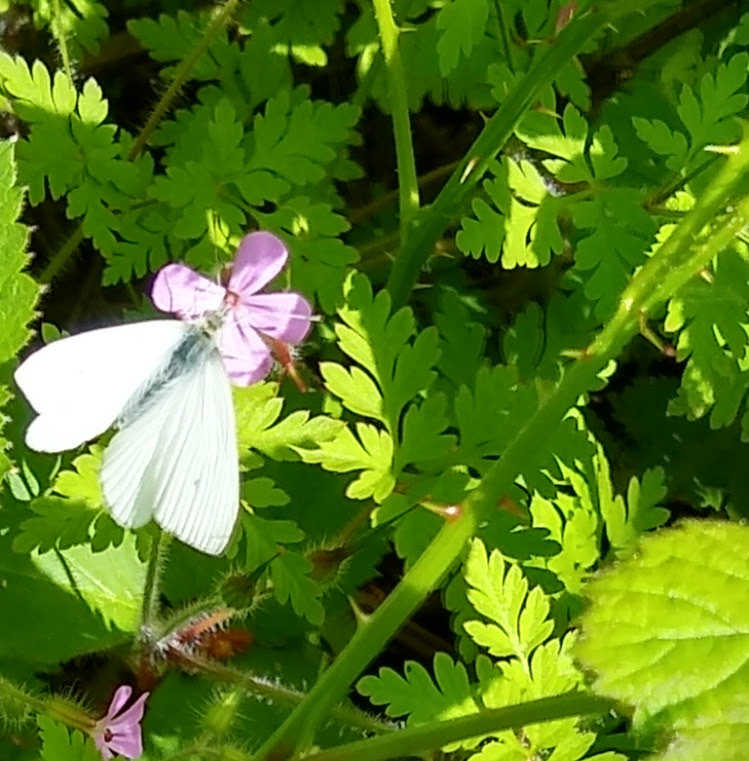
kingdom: Plantae
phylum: Tracheophyta
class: Magnoliopsida
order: Geraniales
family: Geraniaceae
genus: Geranium
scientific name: Geranium robertianum
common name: Herb-robert
